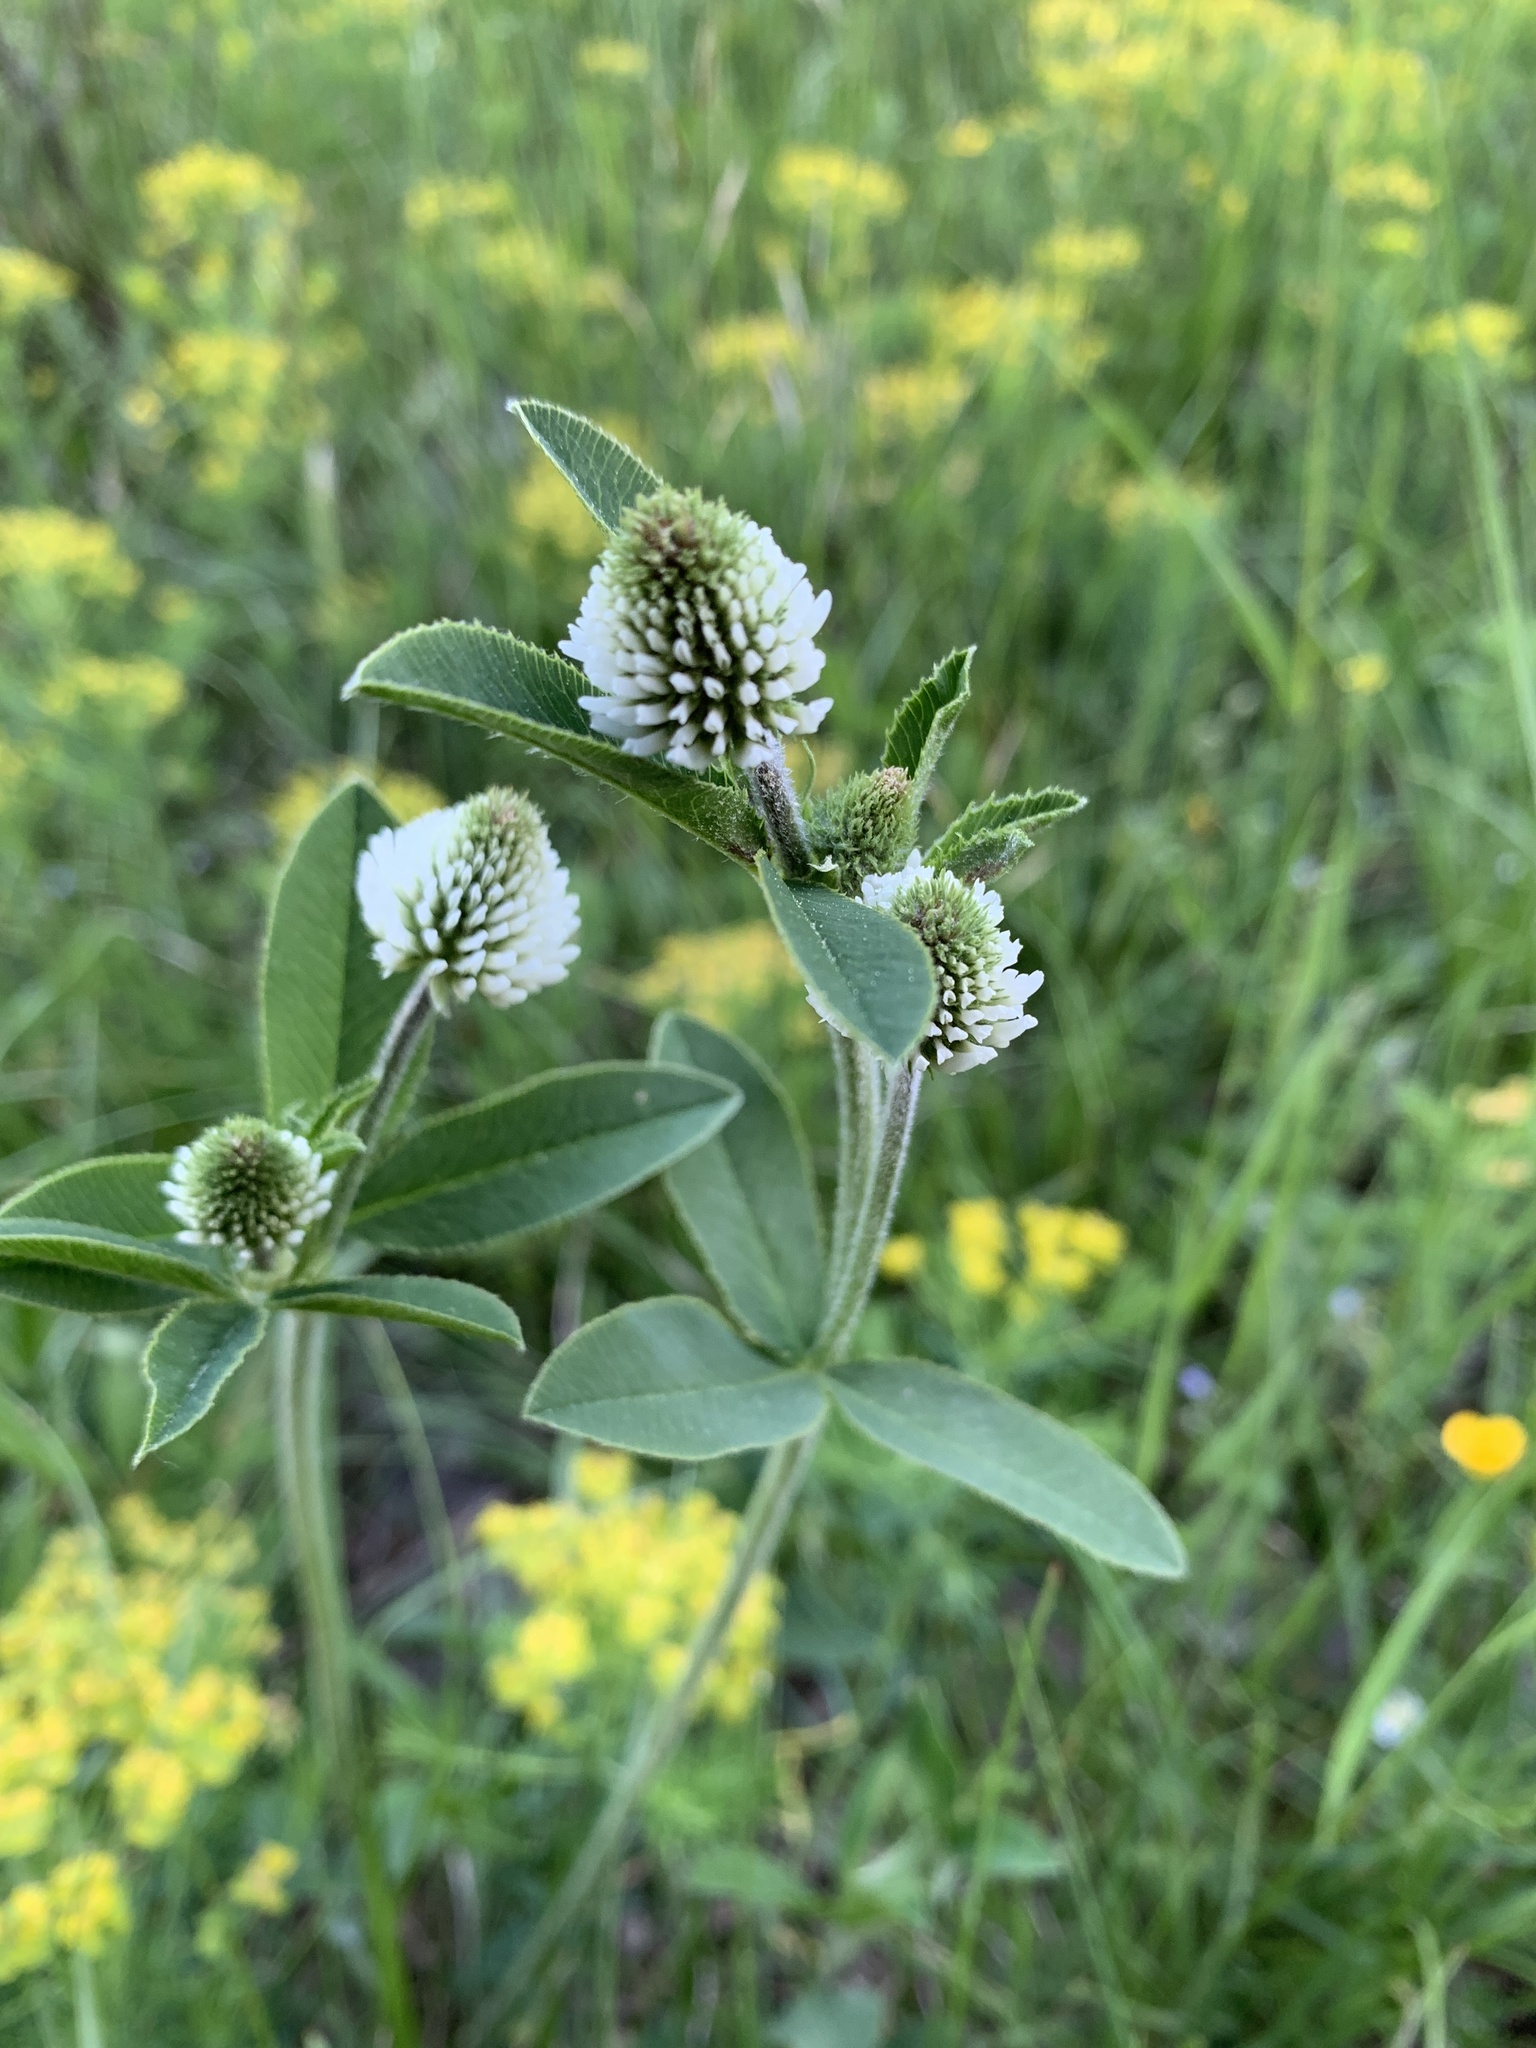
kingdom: Plantae
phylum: Tracheophyta
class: Magnoliopsida
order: Fabales
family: Fabaceae
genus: Trifolium
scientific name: Trifolium montanum
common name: Mountain clover
